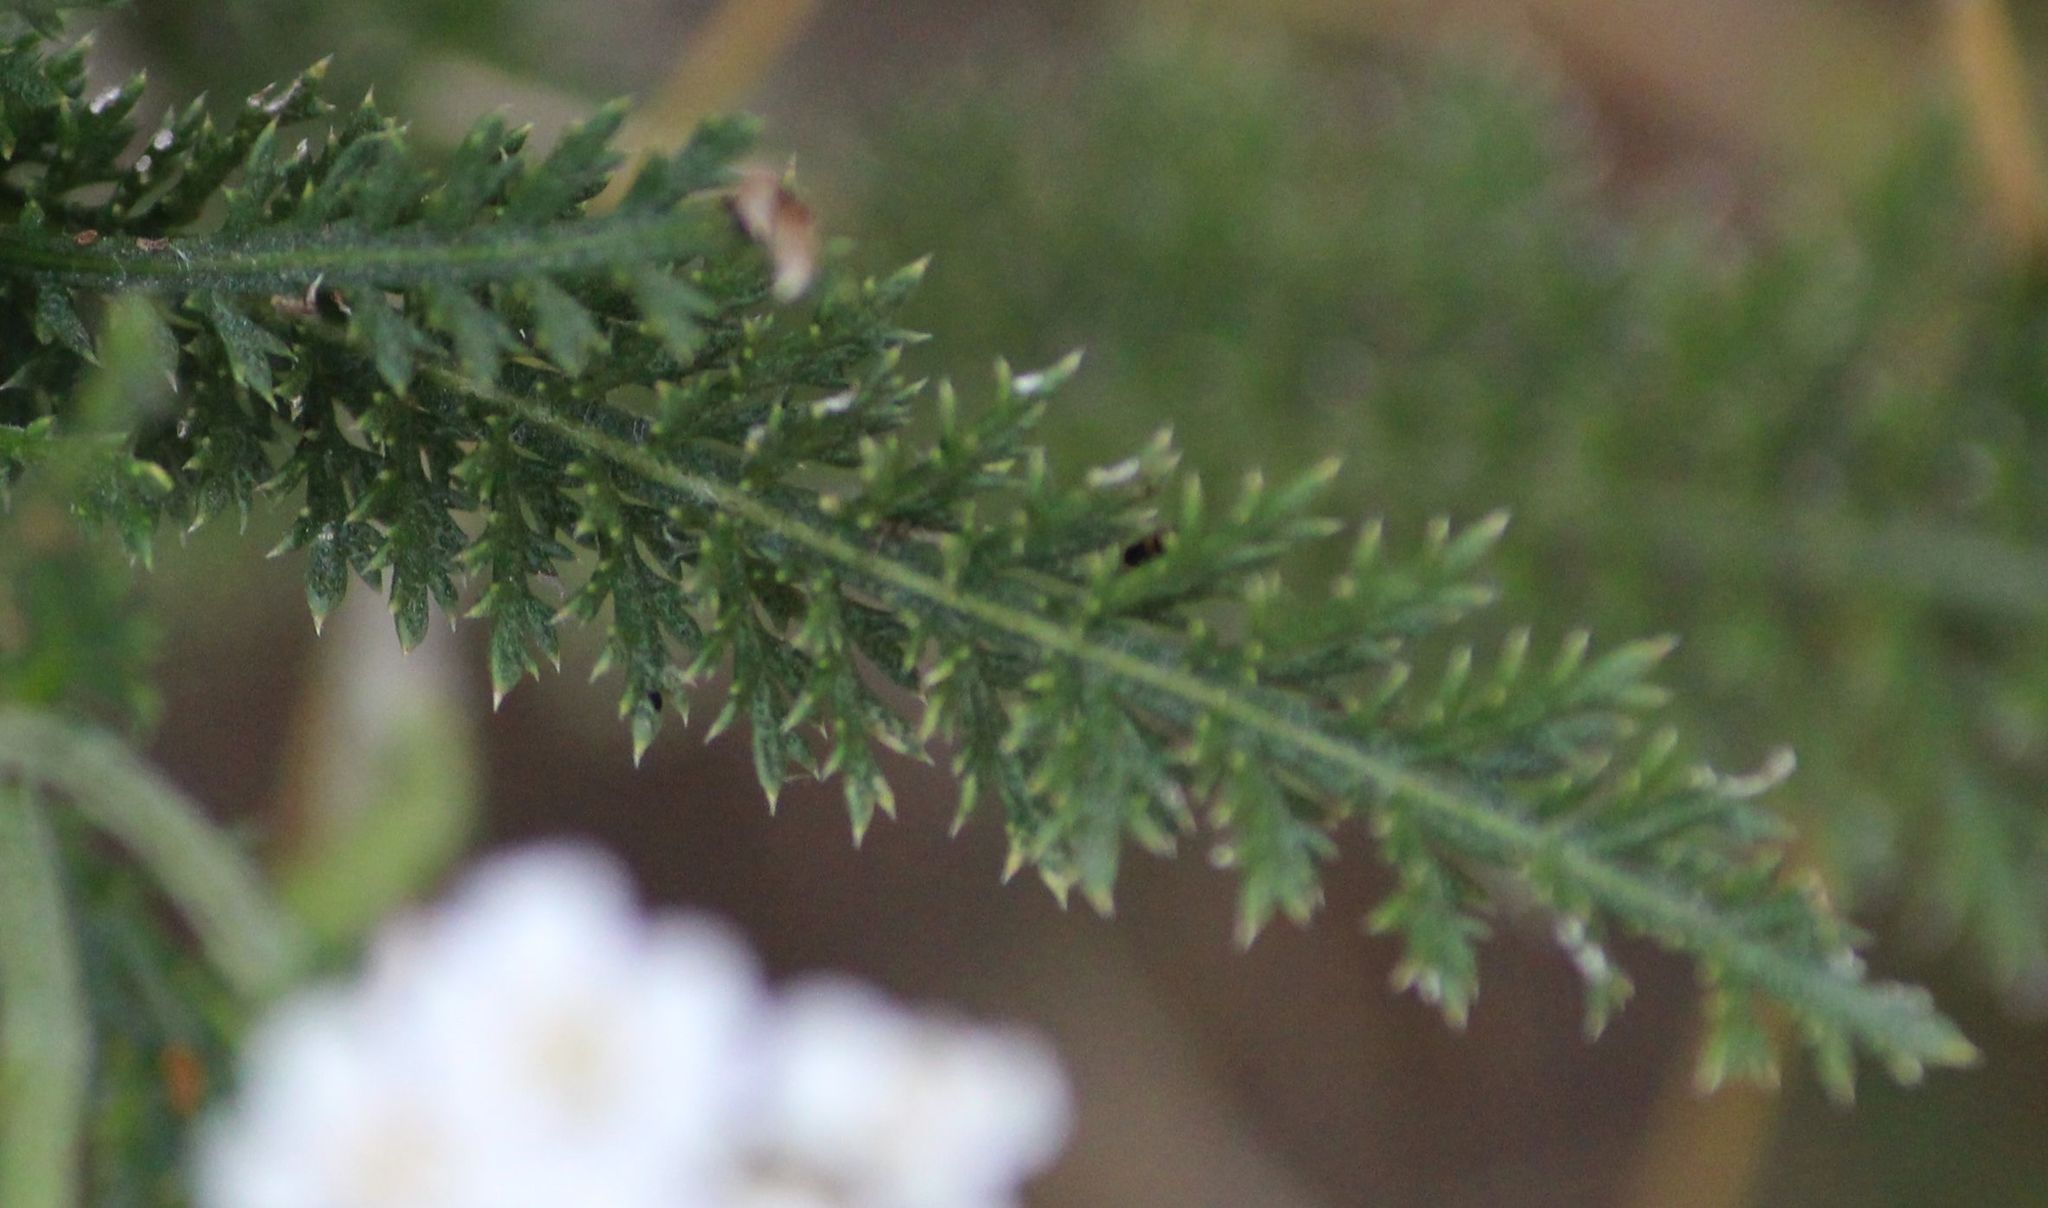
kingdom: Plantae
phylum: Tracheophyta
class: Magnoliopsida
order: Asterales
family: Asteraceae
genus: Achillea
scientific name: Achillea millefolium
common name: Yarrow
